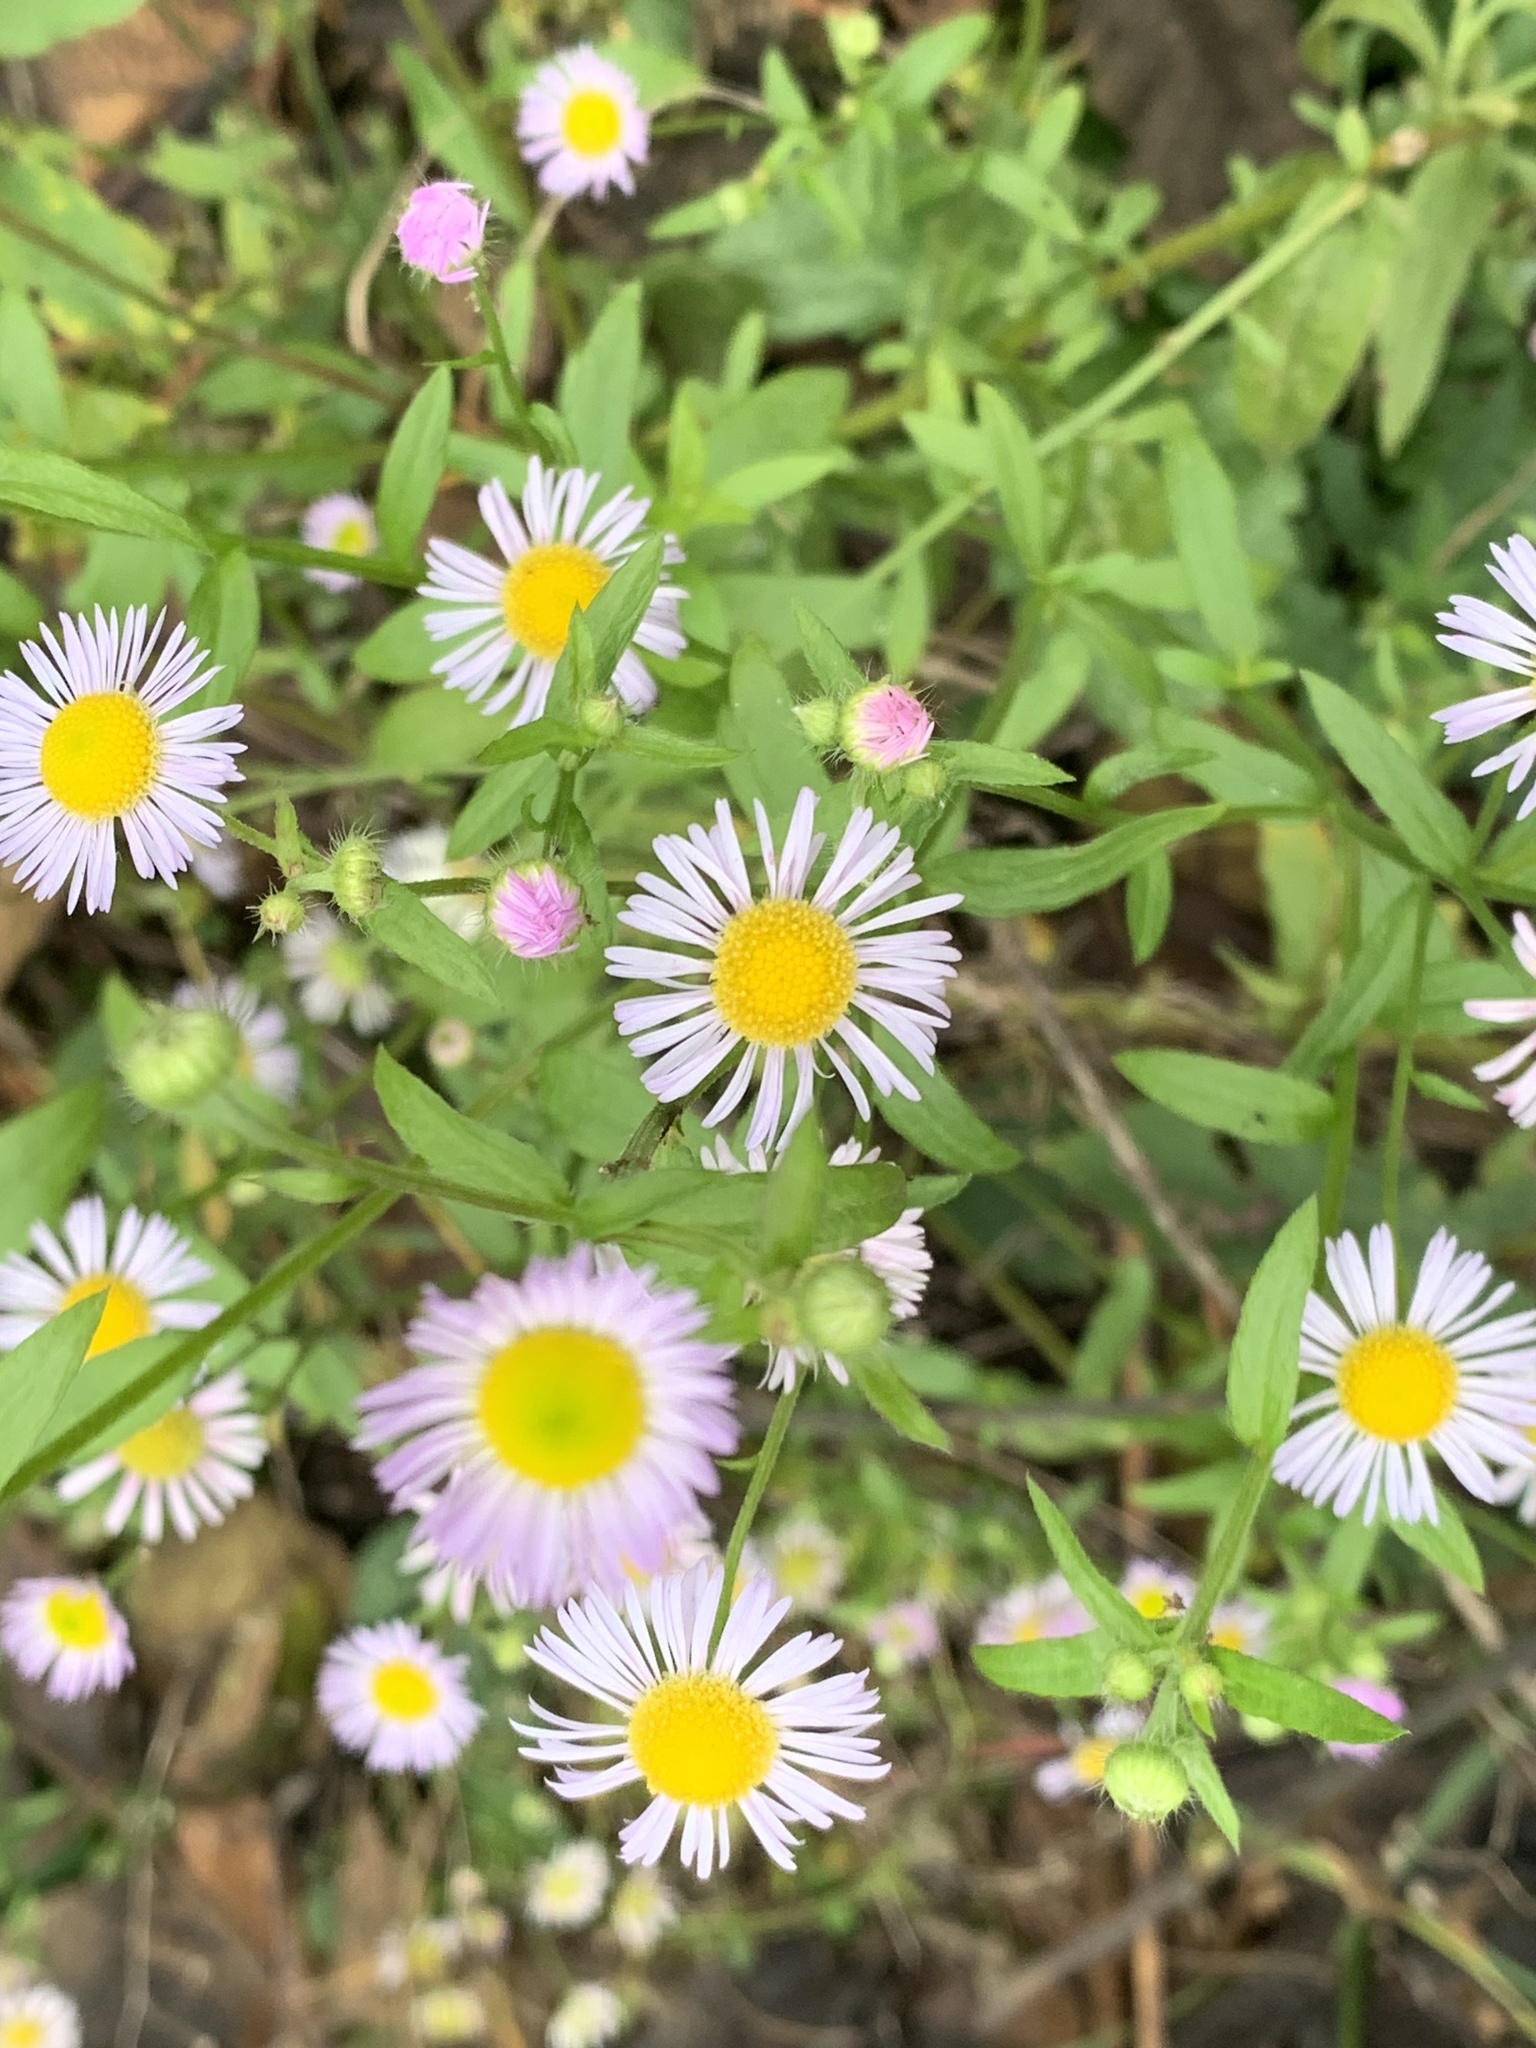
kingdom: Plantae
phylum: Tracheophyta
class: Magnoliopsida
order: Asterales
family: Asteraceae
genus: Erigeron
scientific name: Erigeron annuus
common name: Tall fleabane
